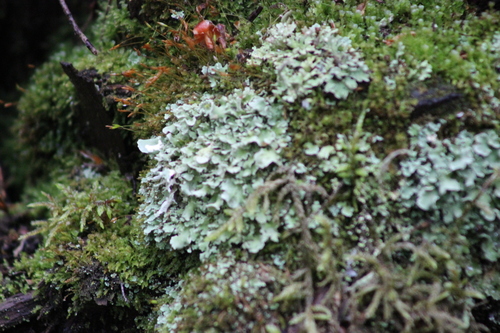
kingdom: Fungi
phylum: Ascomycota
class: Lecanoromycetes
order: Lecanorales
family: Cladoniaceae
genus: Cladonia
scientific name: Cladonia
